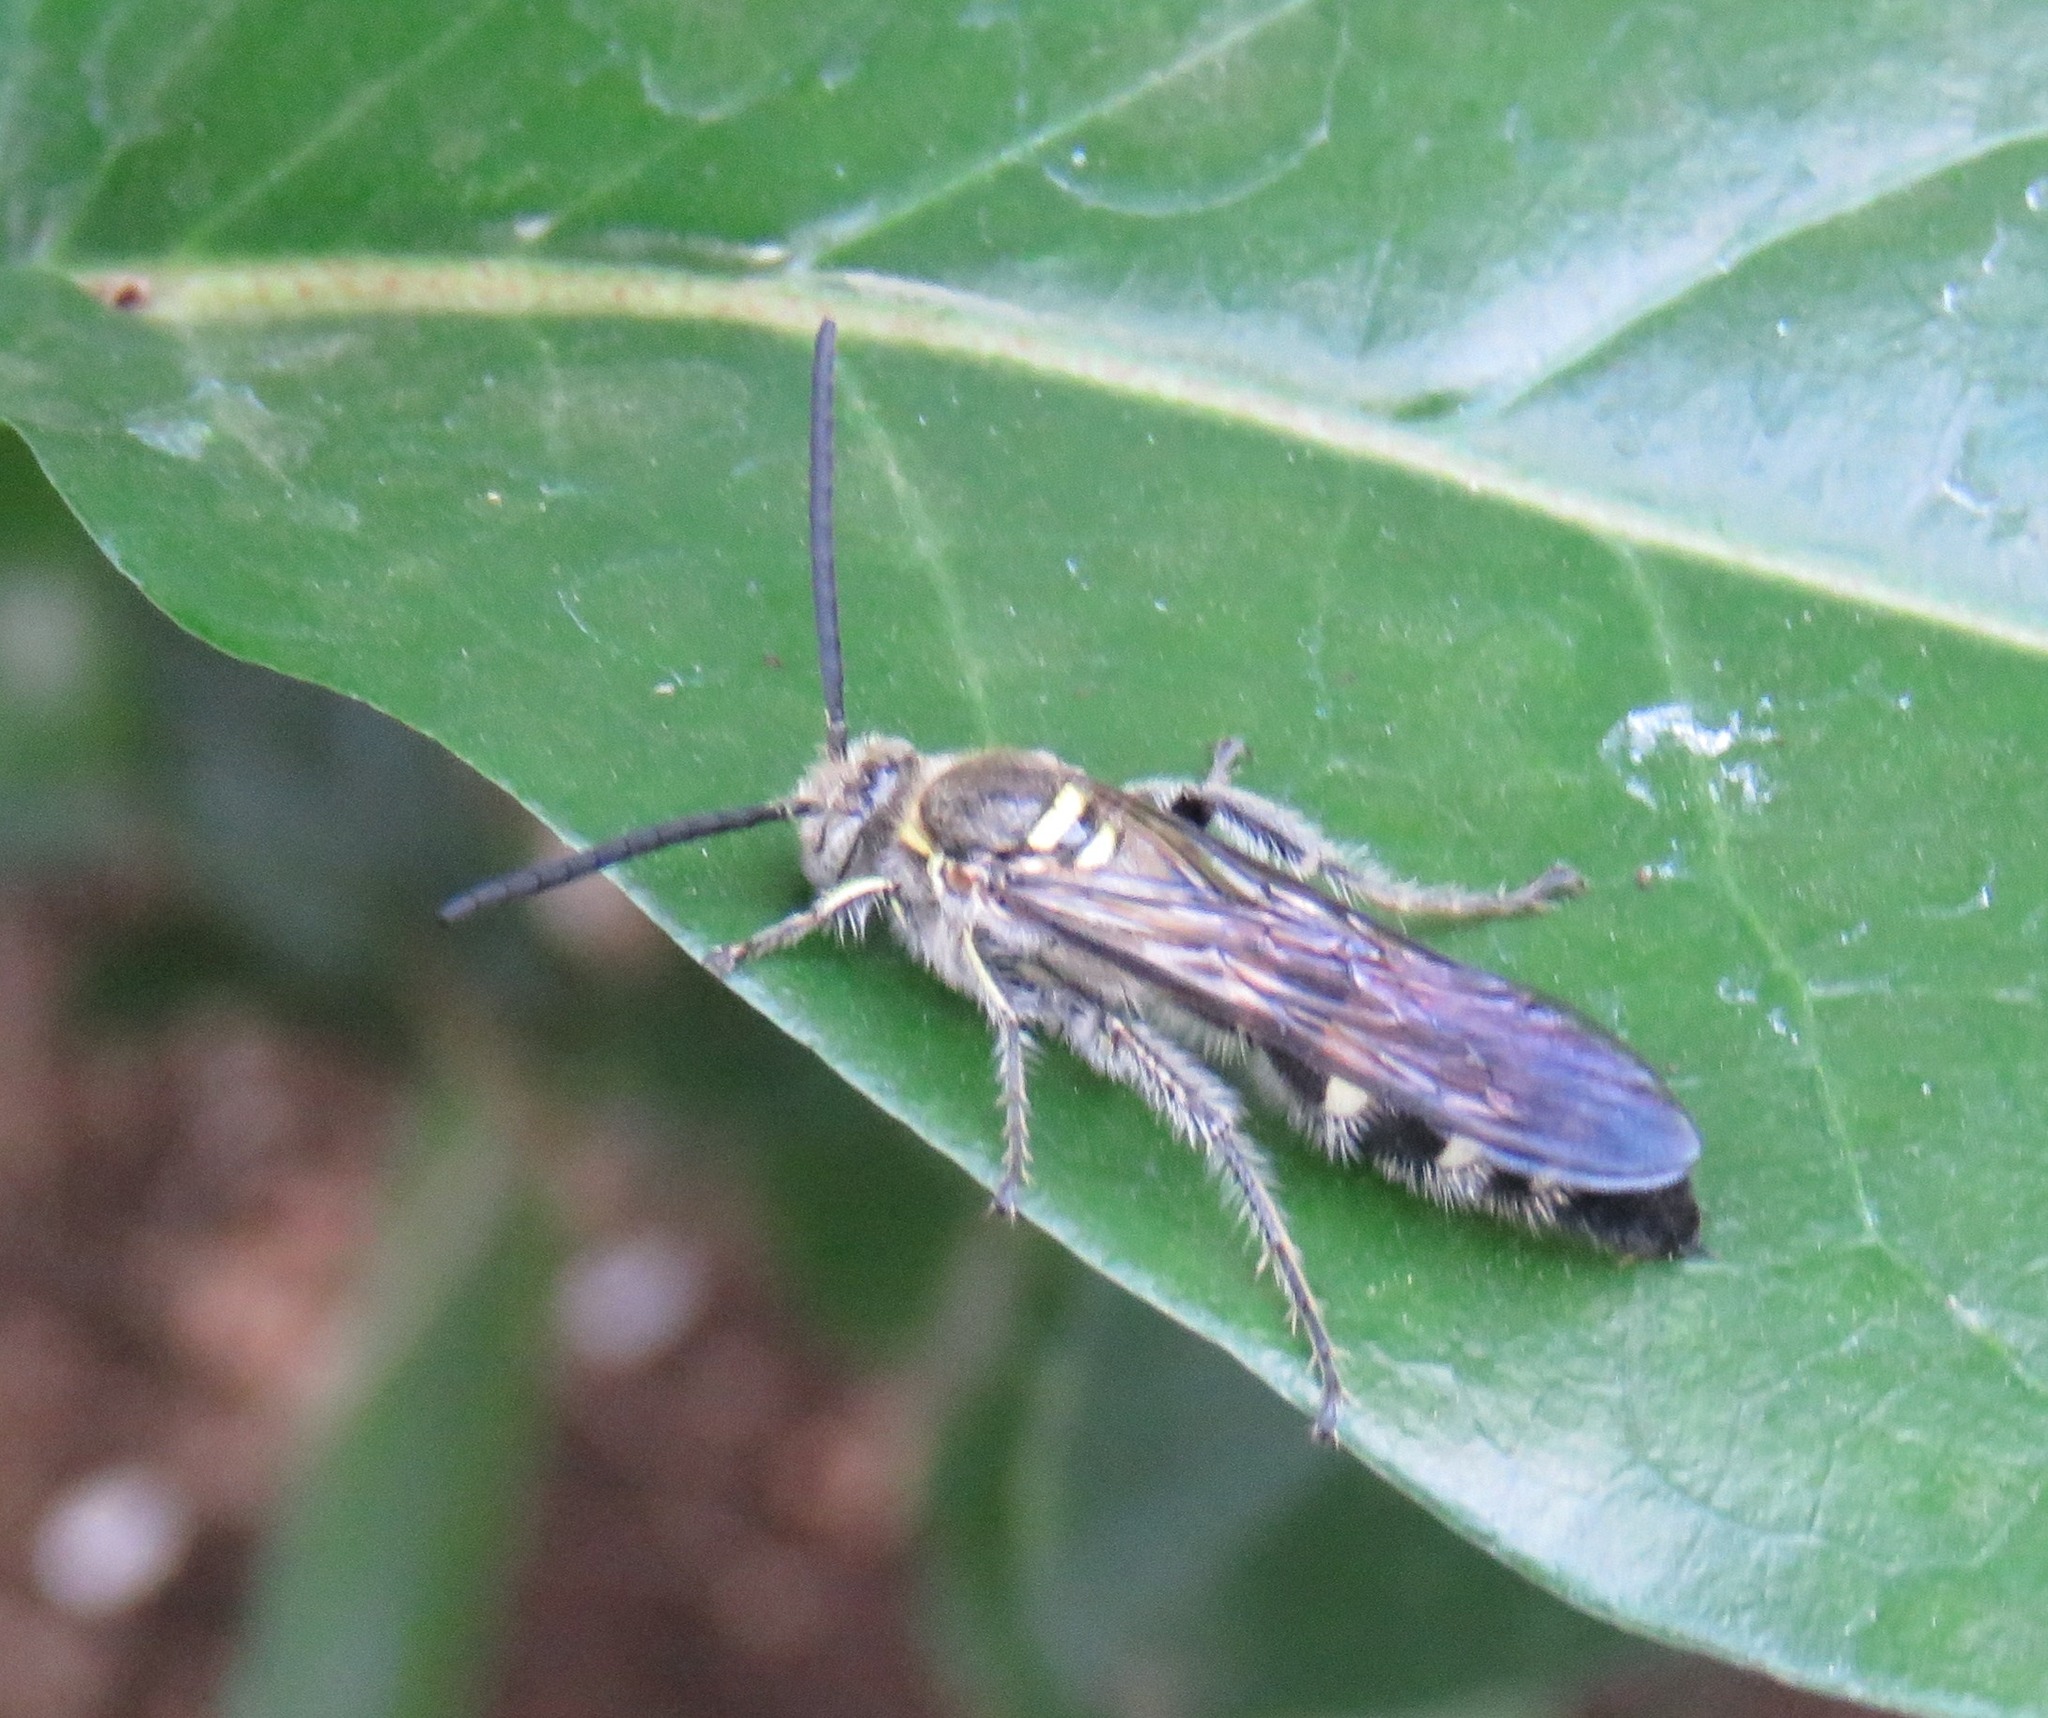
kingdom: Animalia
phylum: Arthropoda
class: Insecta
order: Hymenoptera
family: Scoliidae
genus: Dielis
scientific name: Dielis tolteca
